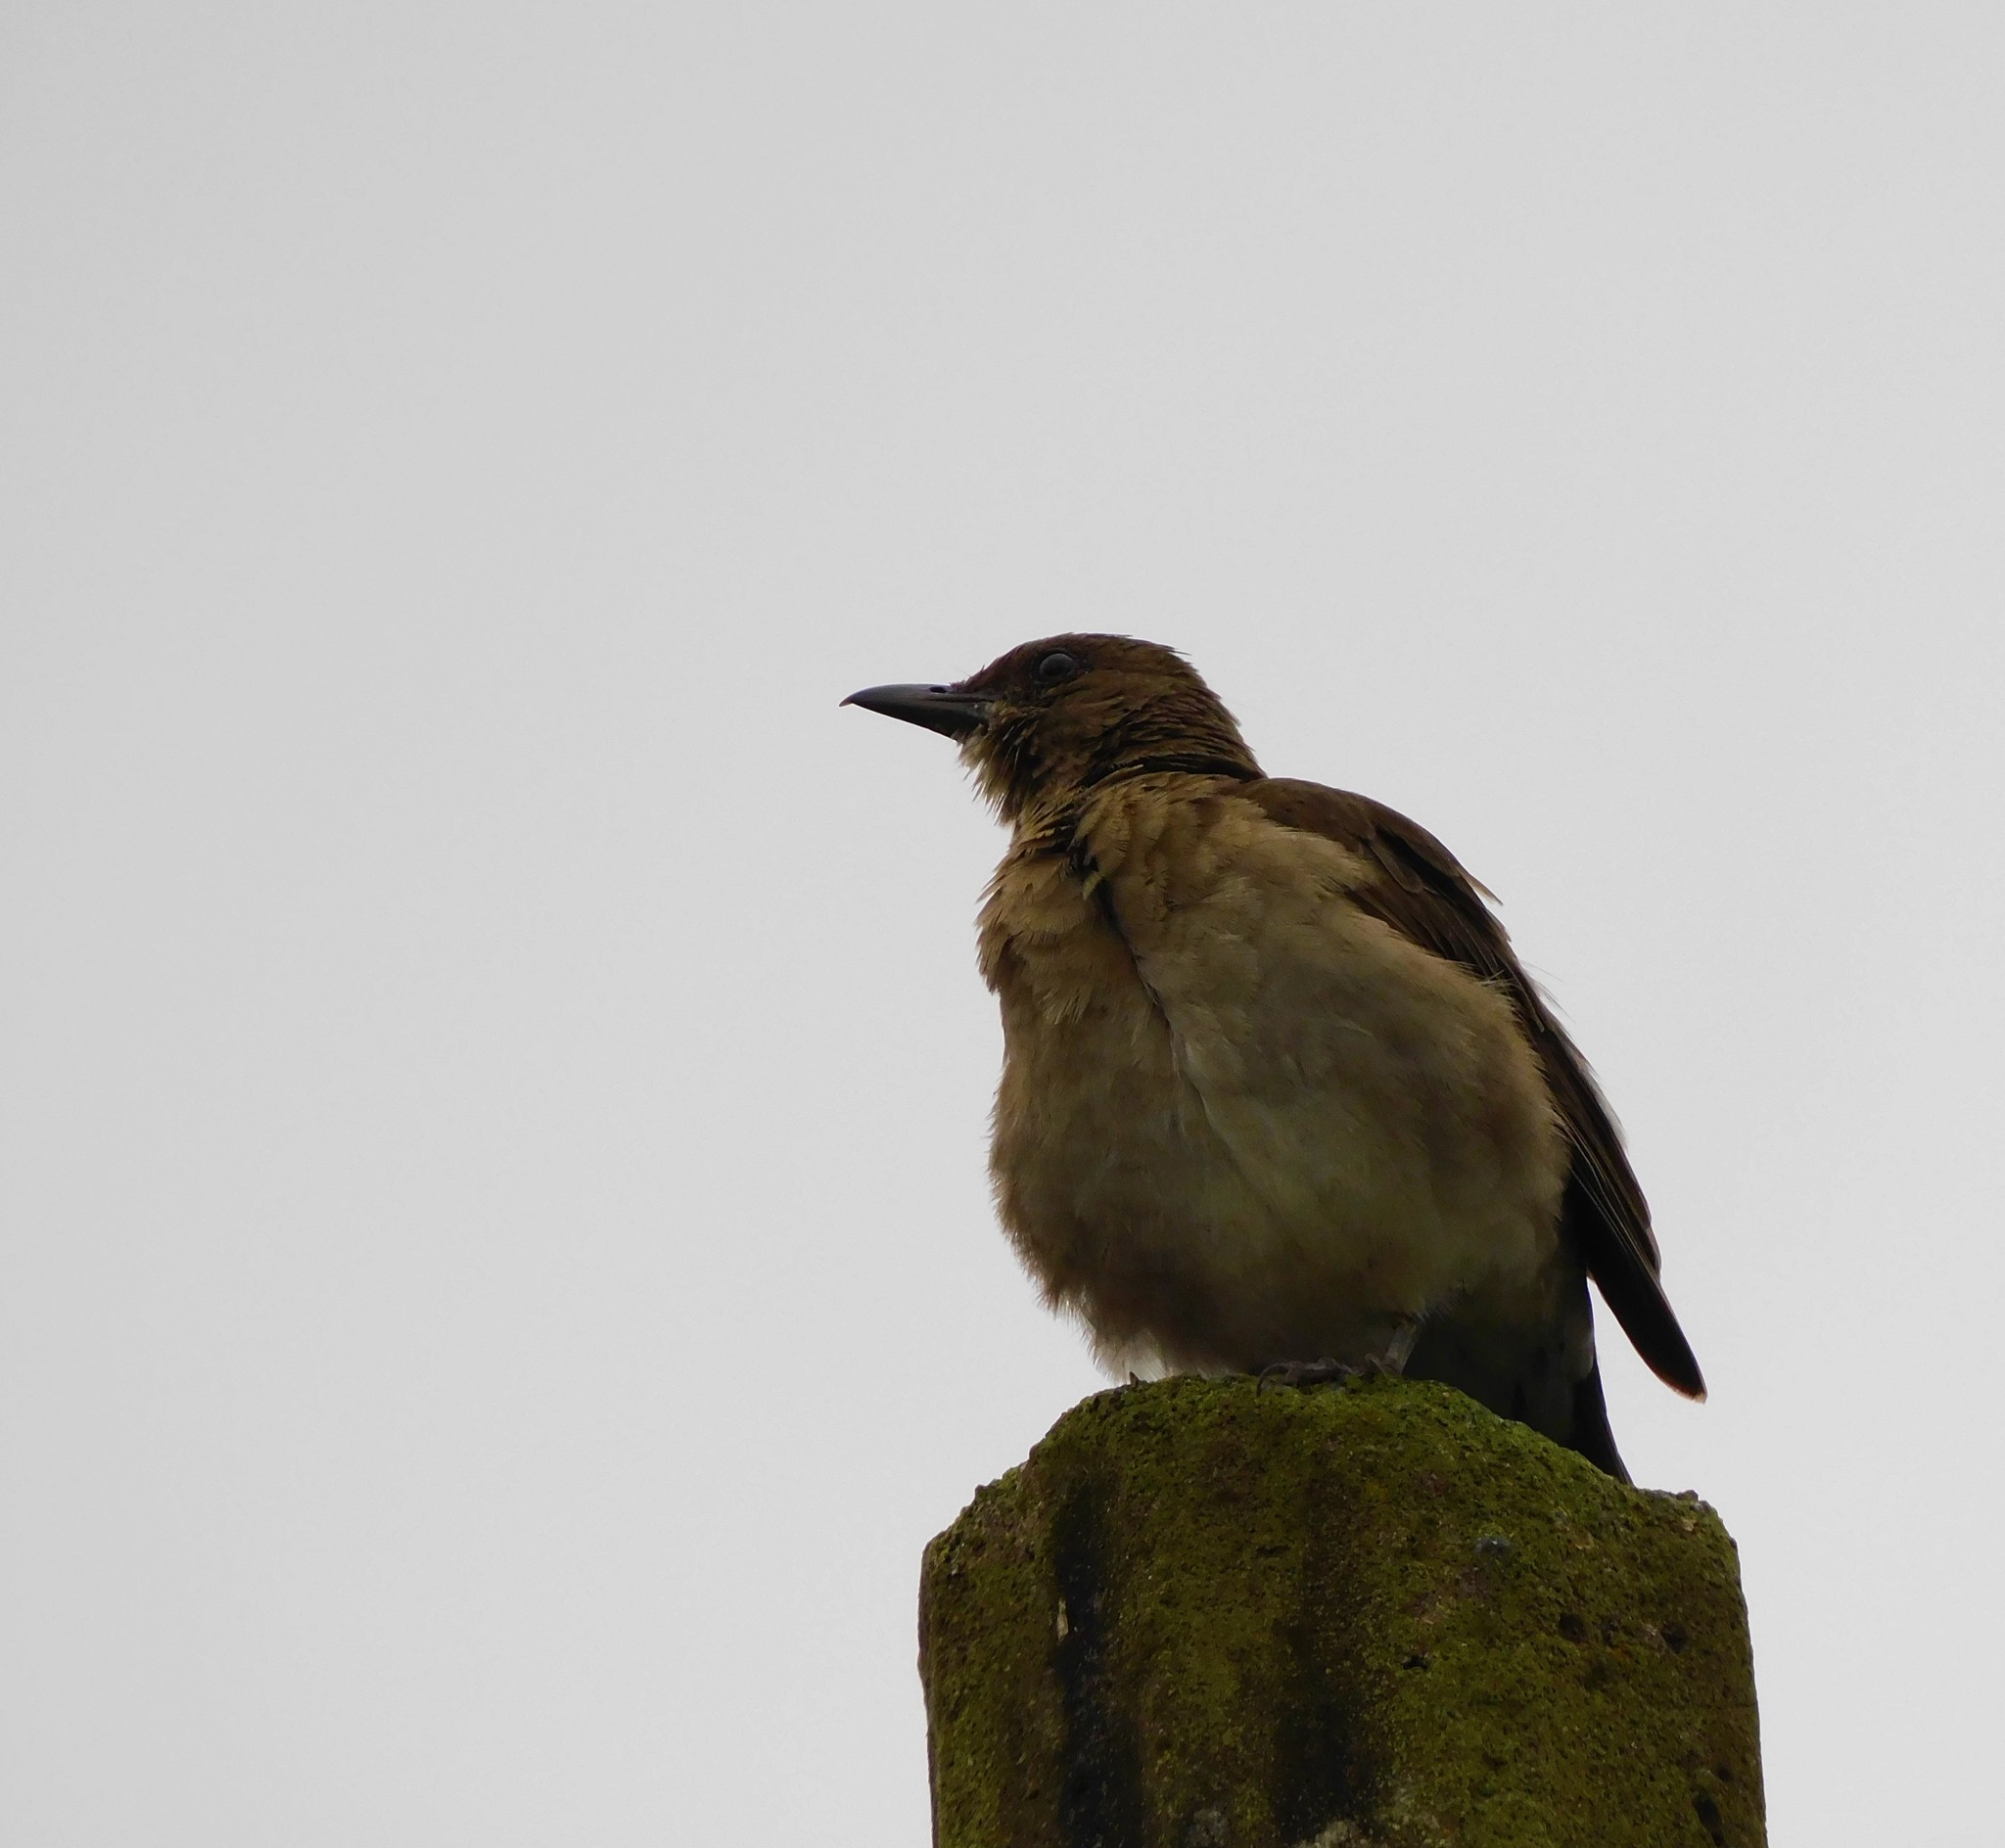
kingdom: Animalia
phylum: Chordata
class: Aves
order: Passeriformes
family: Turdidae
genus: Turdus
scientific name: Turdus ignobilis
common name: Black-billed thrush
